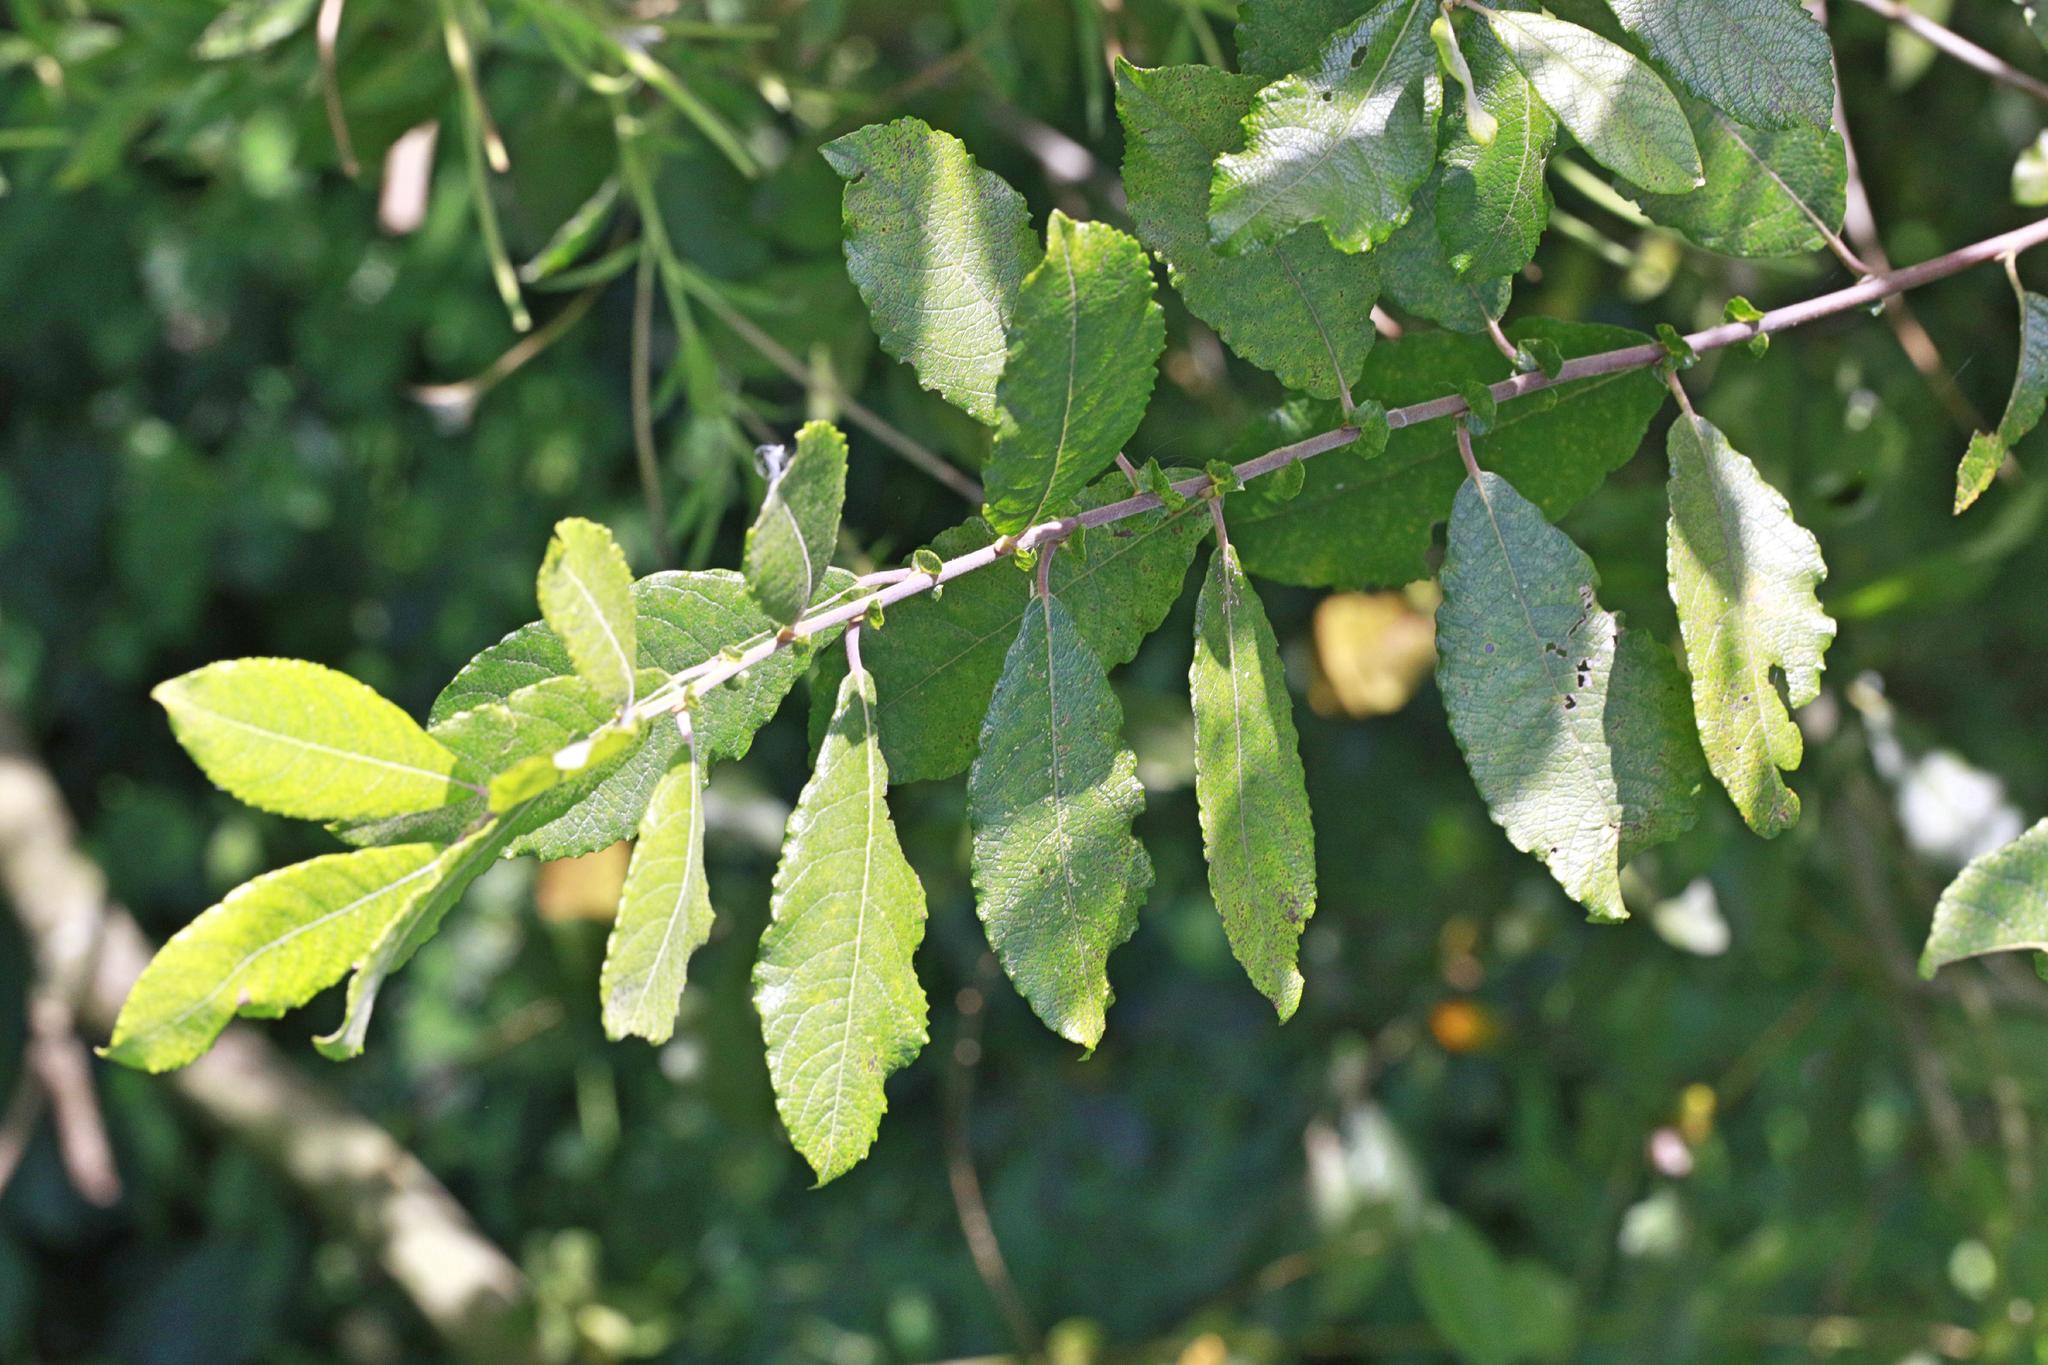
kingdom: Plantae
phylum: Tracheophyta
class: Magnoliopsida
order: Malpighiales
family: Salicaceae
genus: Salix
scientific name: Salix cinerea
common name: Common sallow
